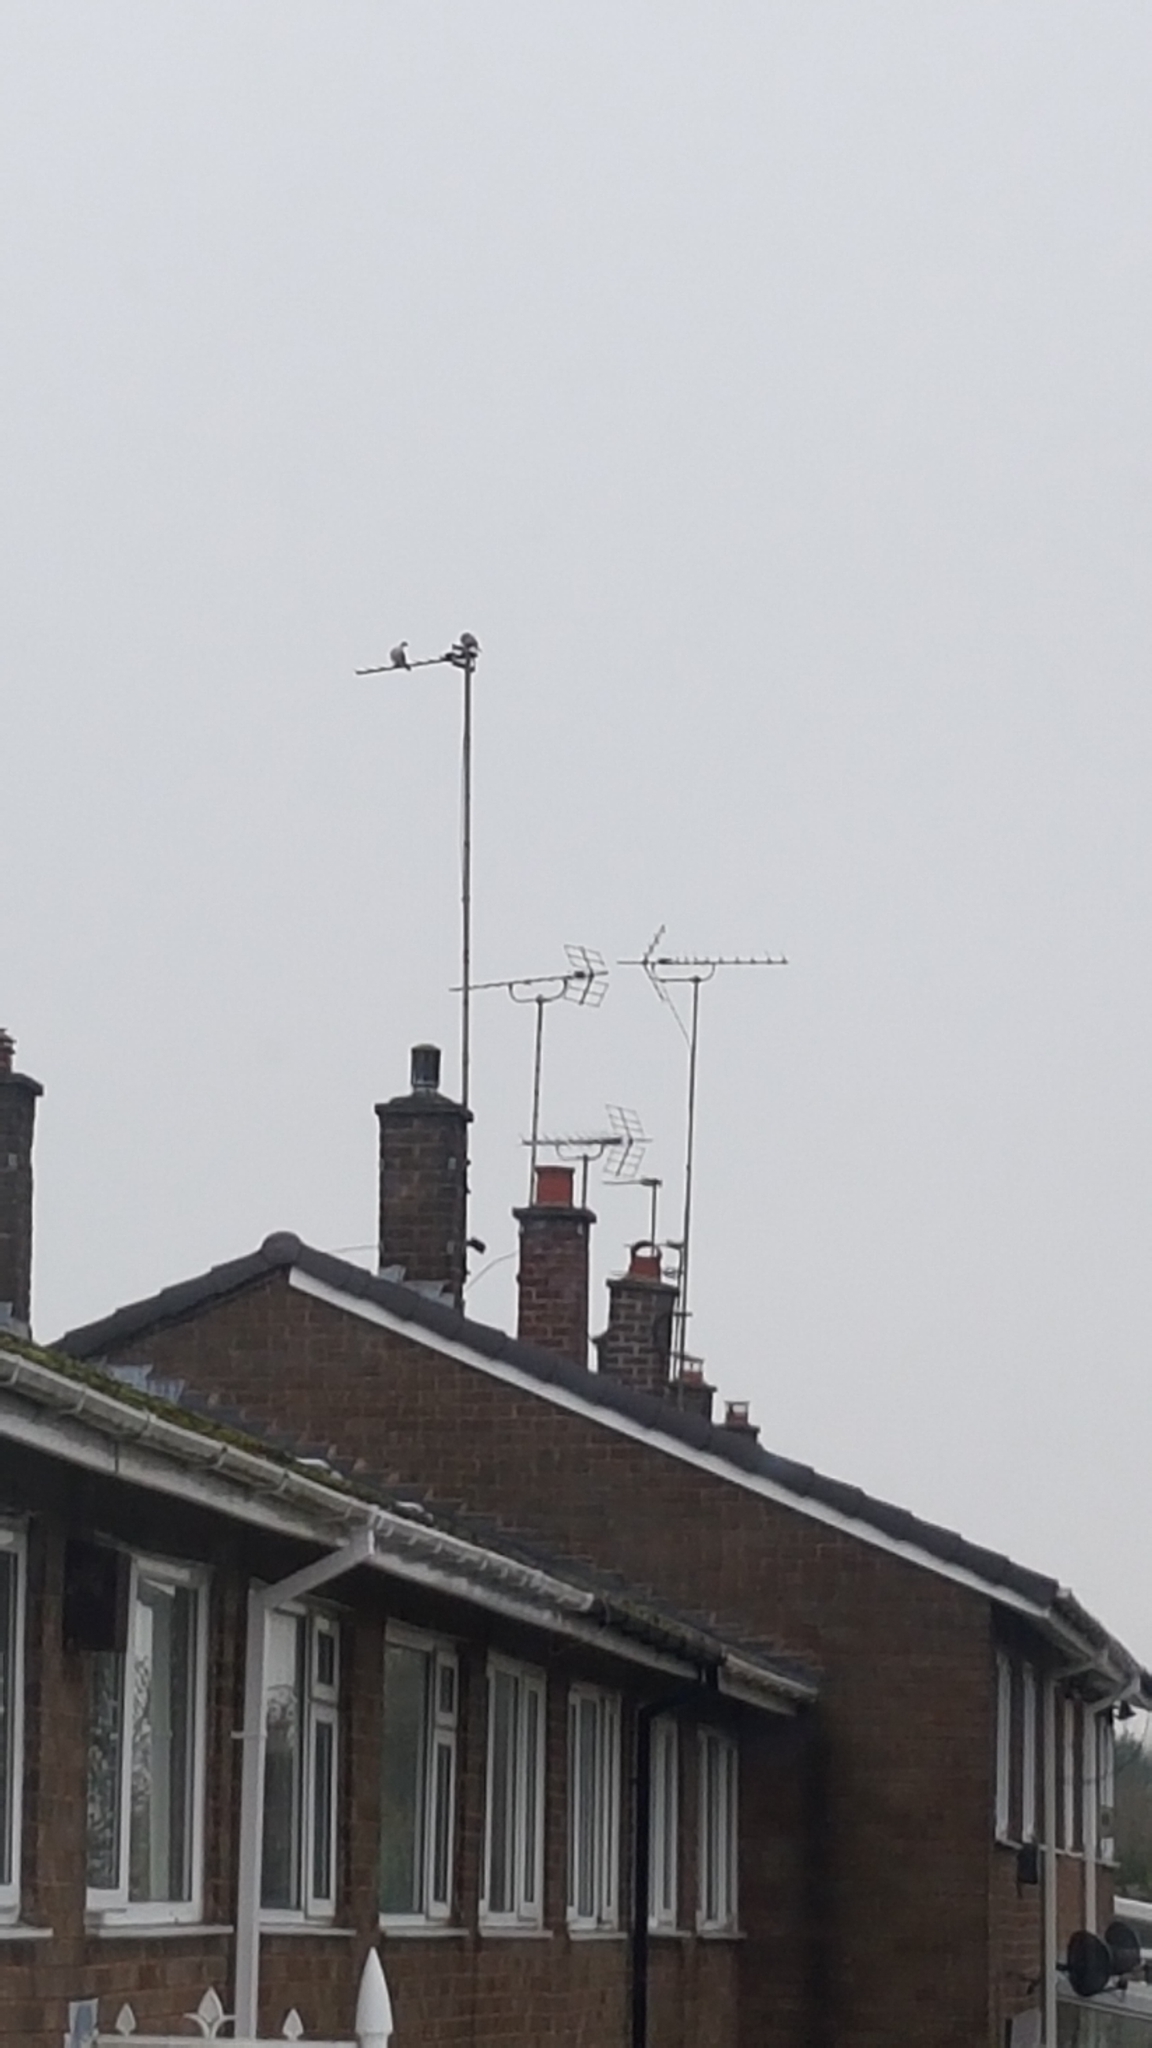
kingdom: Animalia
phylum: Chordata
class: Aves
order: Columbiformes
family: Columbidae
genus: Streptopelia
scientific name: Streptopelia decaocto
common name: Eurasian collared dove
